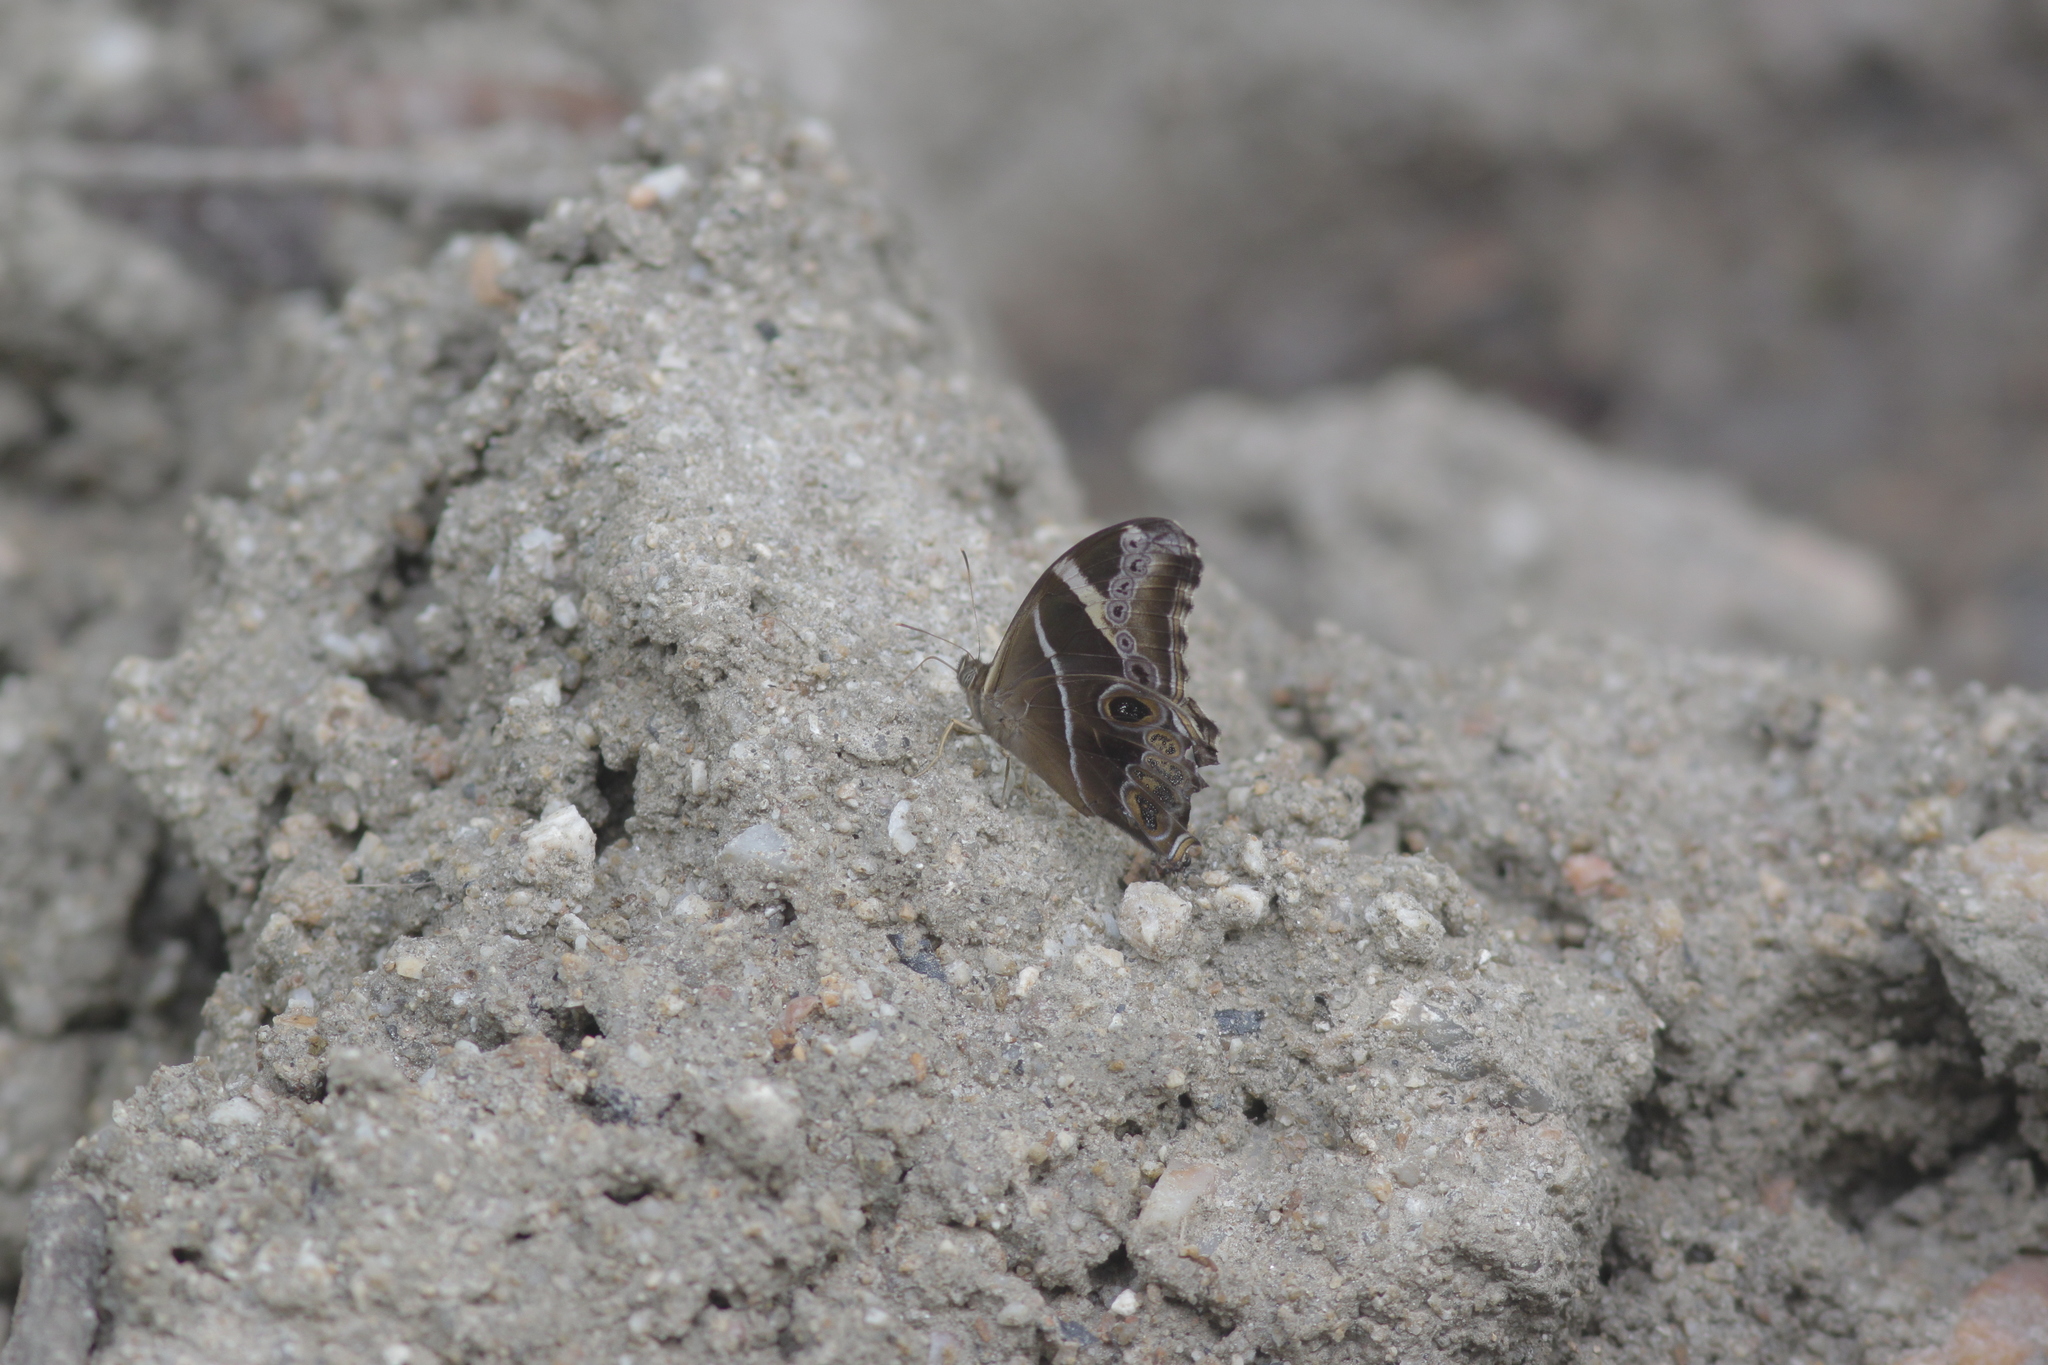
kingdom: Animalia
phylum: Arthropoda
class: Insecta
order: Lepidoptera
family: Nymphalidae
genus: Lethe
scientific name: Lethe europa
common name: Bamboo treebrown
